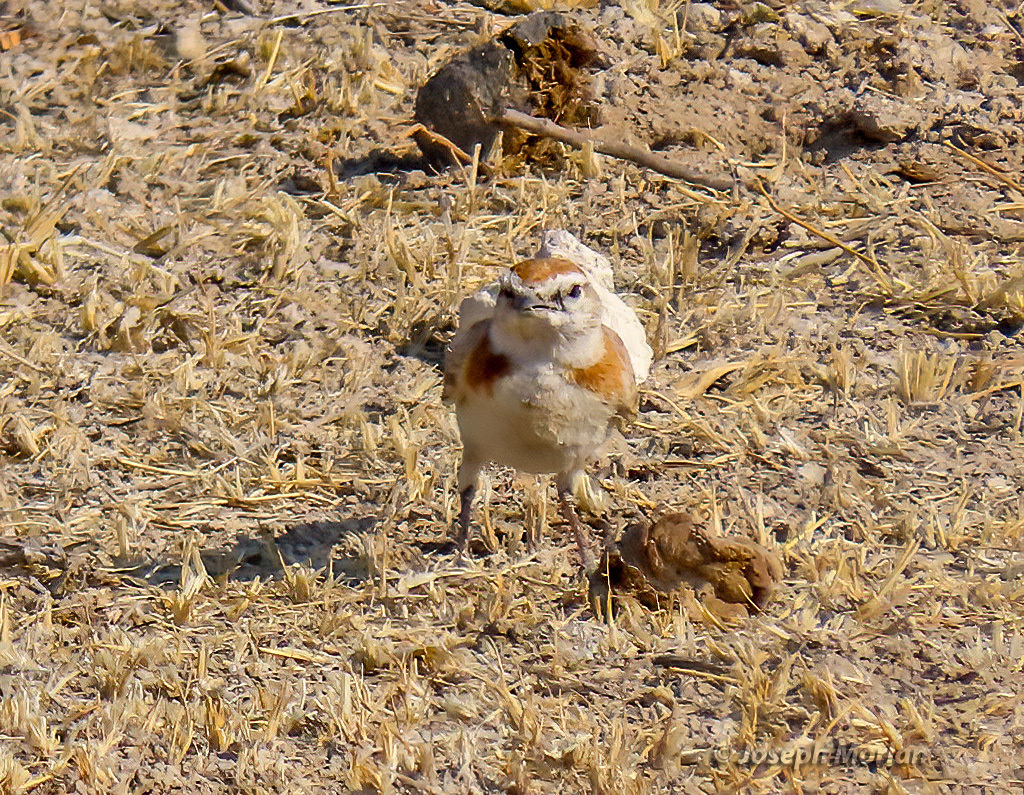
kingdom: Animalia
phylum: Chordata
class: Aves
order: Passeriformes
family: Alaudidae
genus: Calandrella
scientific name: Calandrella cinerea
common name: Red-capped lark
